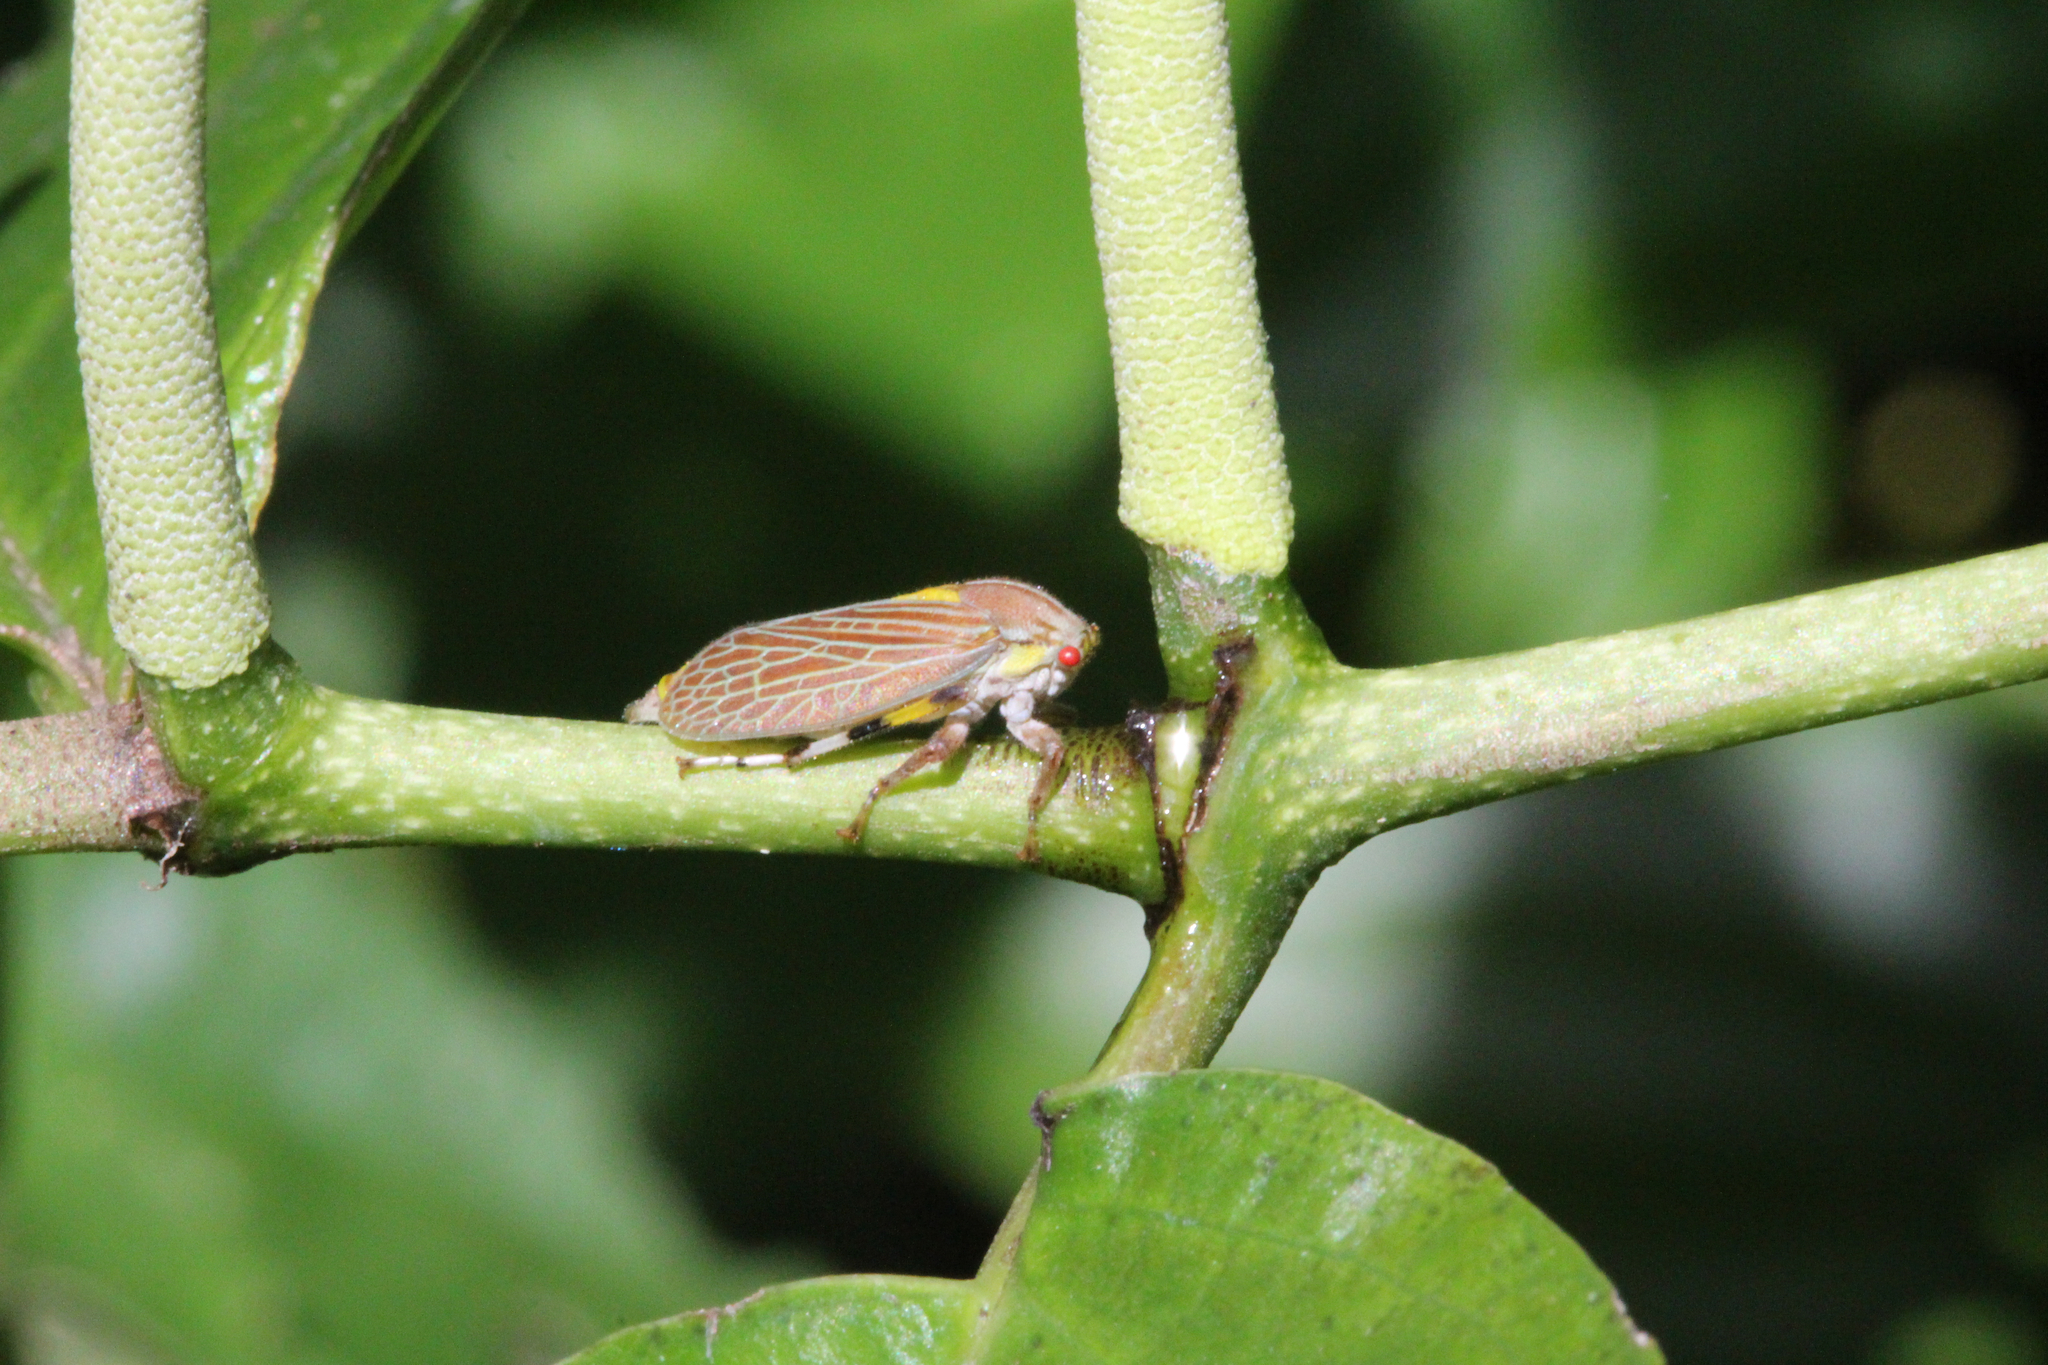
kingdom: Animalia
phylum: Arthropoda
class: Insecta
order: Hemiptera
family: Aetalionidae
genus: Aetalion
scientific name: Aetalion reticulatum
